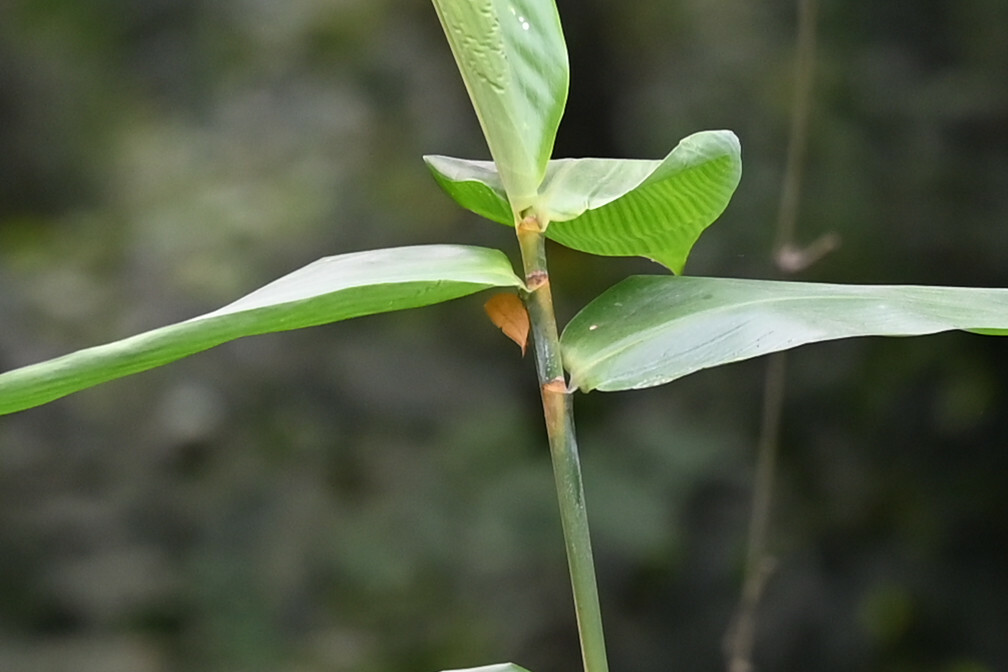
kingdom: Animalia
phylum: Arthropoda
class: Insecta
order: Lepidoptera
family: Lycaenidae
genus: Loxura
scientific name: Loxura atymnus
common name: Common yamfly
